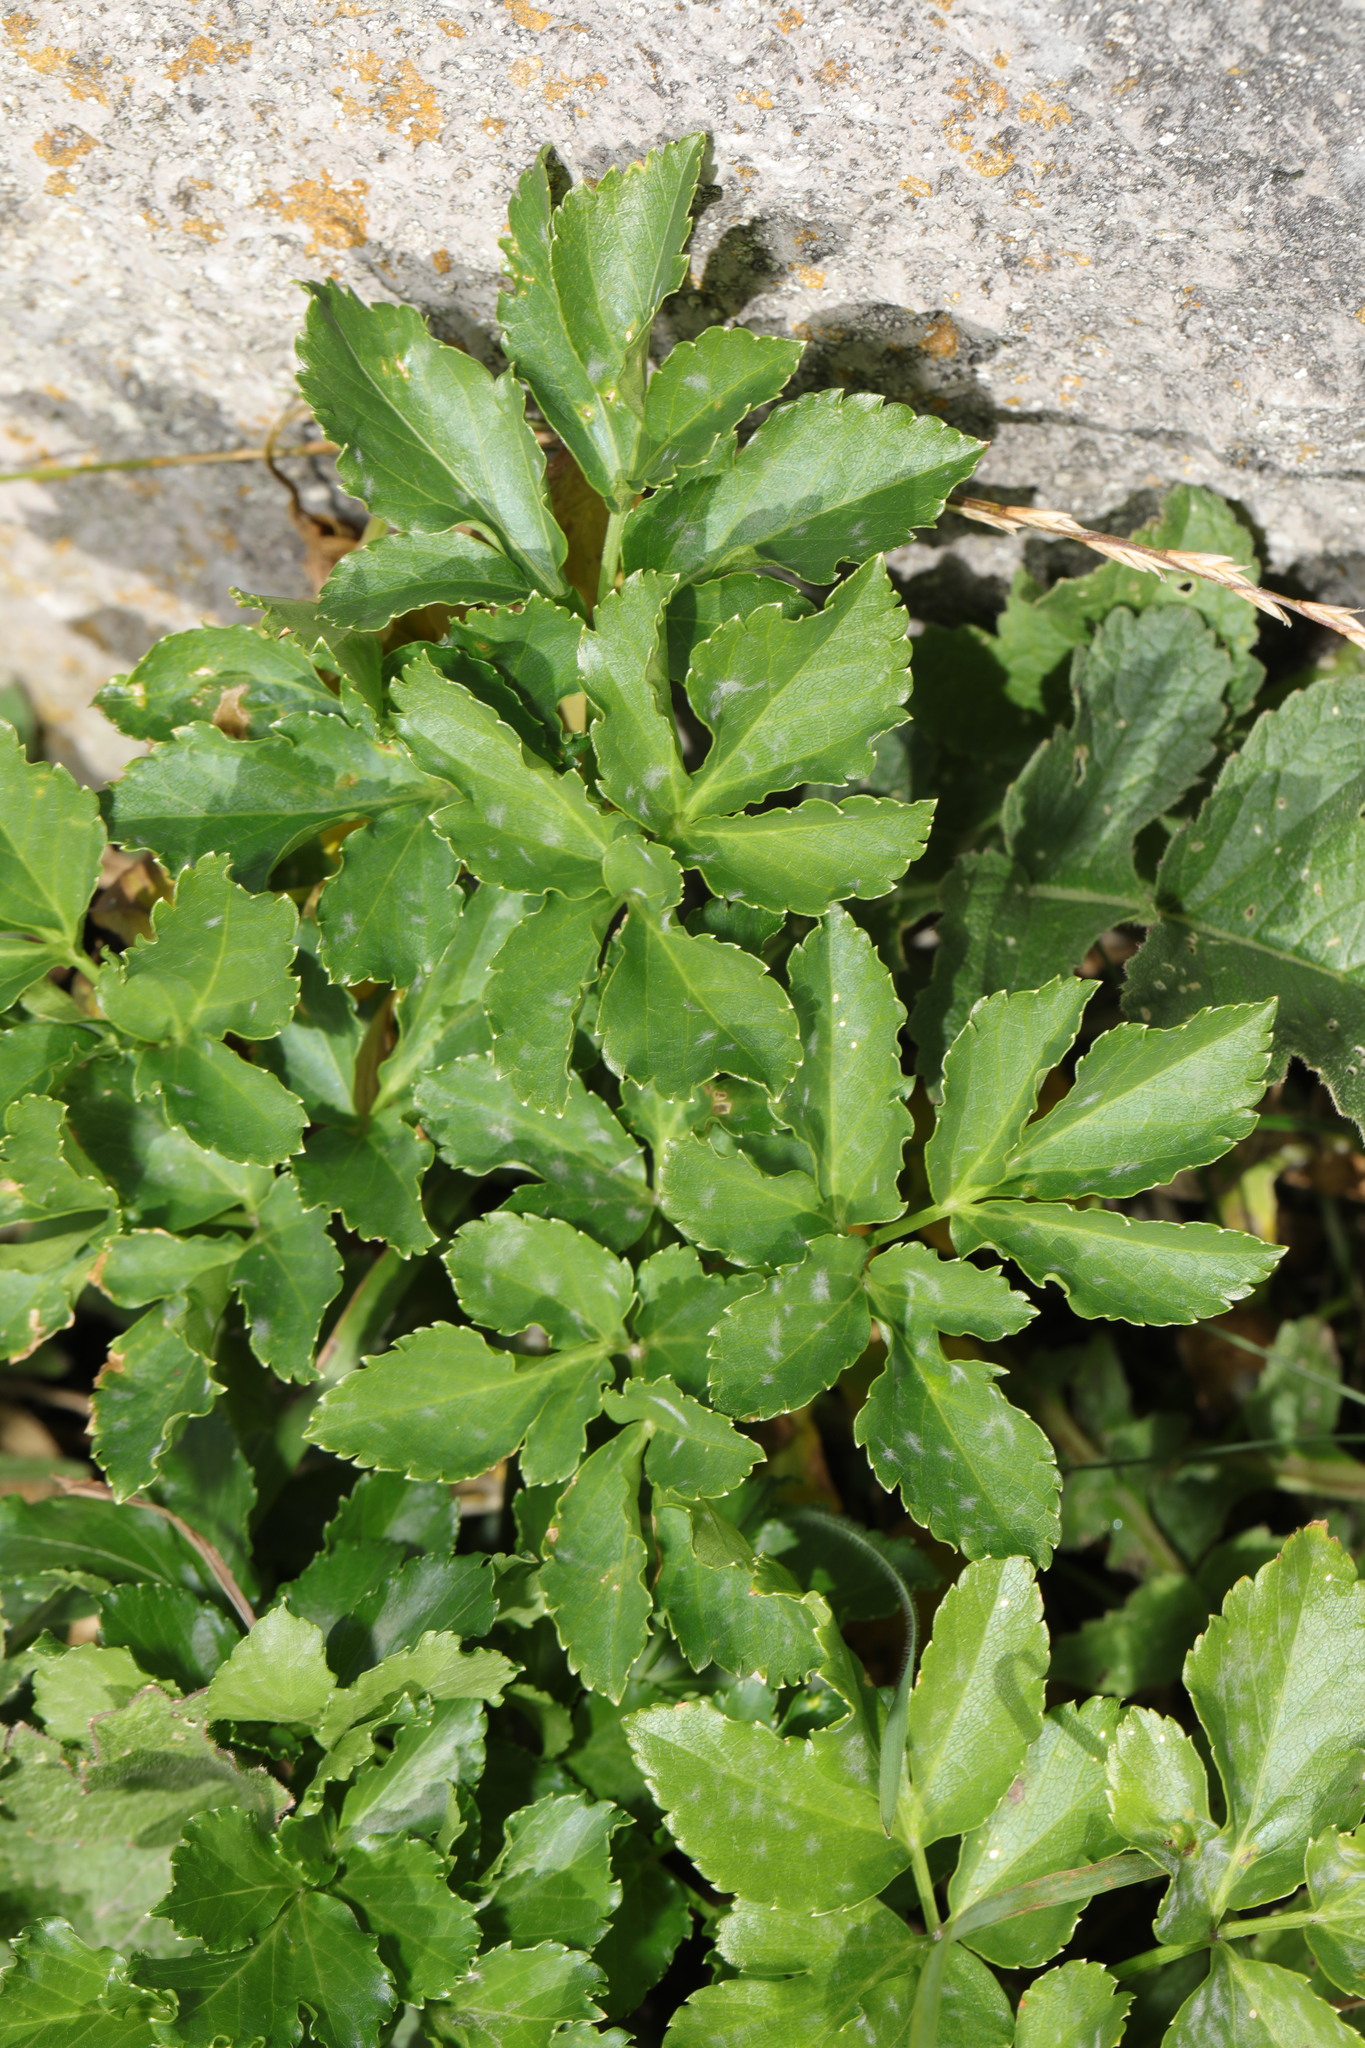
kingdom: Plantae
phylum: Tracheophyta
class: Magnoliopsida
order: Apiales
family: Apiaceae
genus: Smyrnium
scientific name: Smyrnium olusatrum
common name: Alexanders
